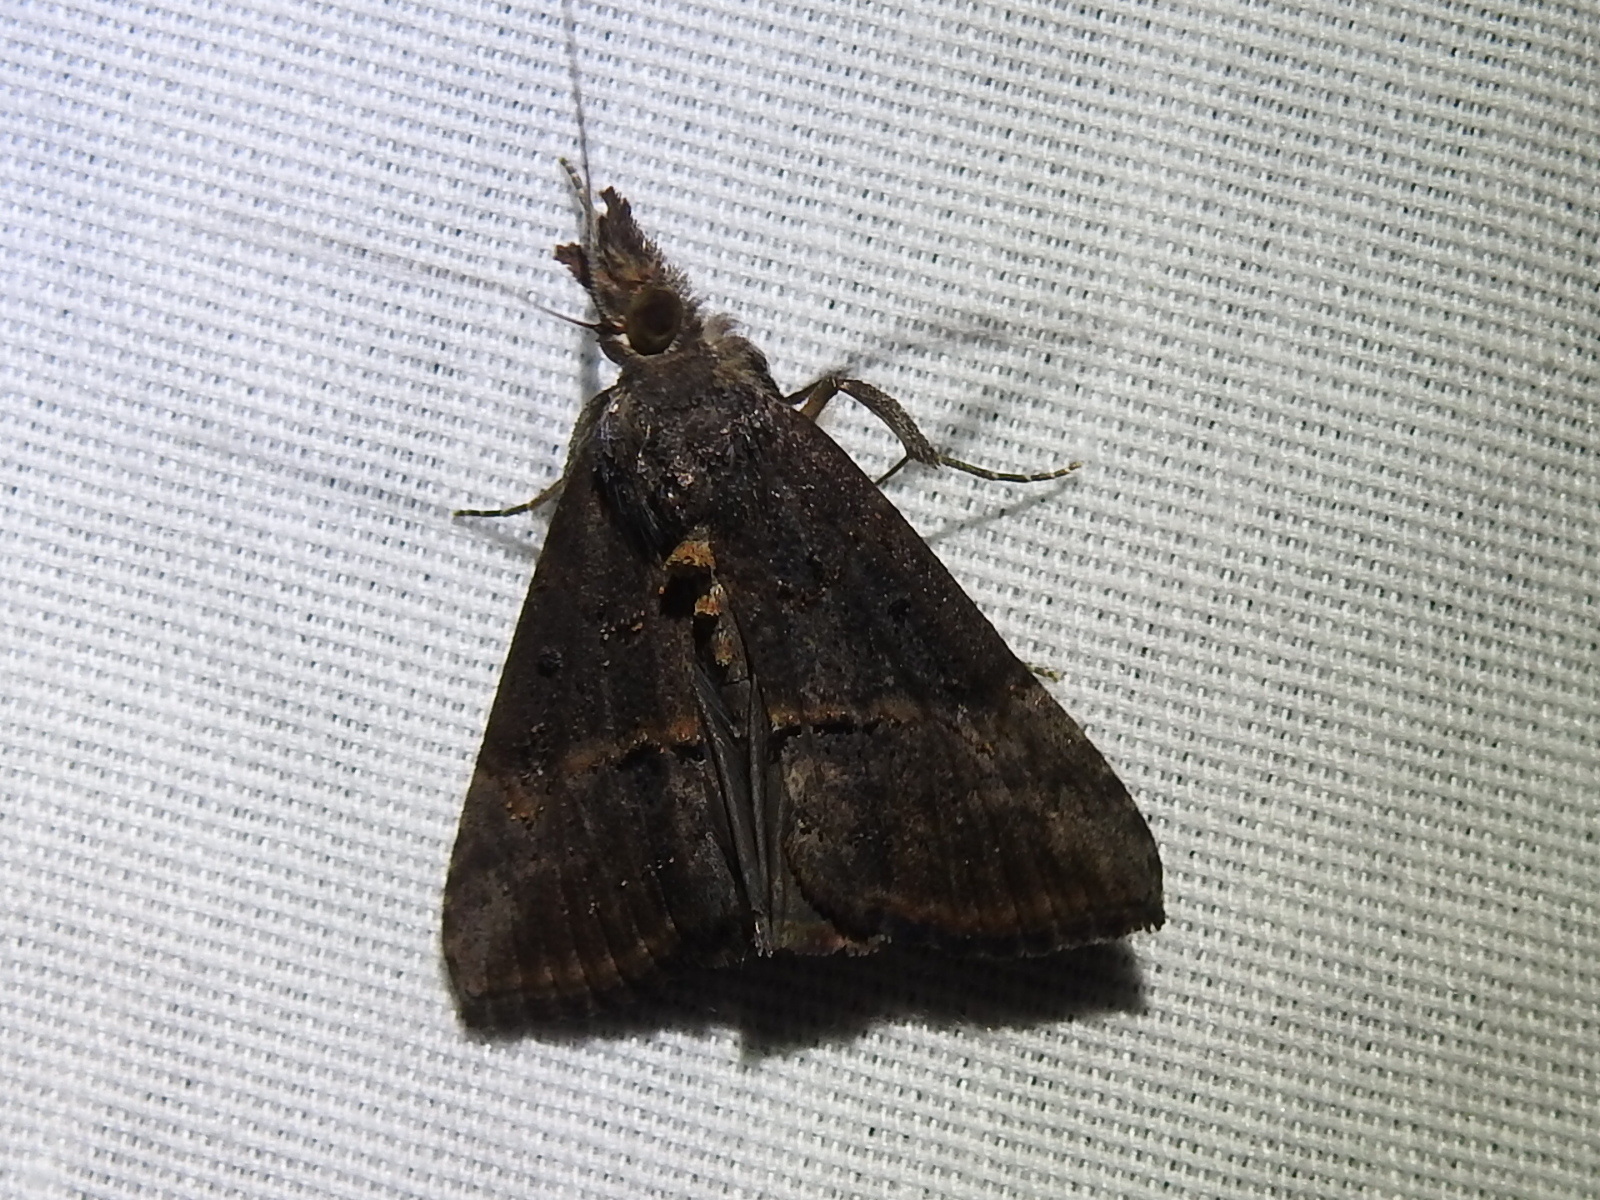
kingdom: Animalia
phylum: Arthropoda
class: Insecta
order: Lepidoptera
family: Erebidae
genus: Hypena
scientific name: Hypena scabra
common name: Green cloverworm
